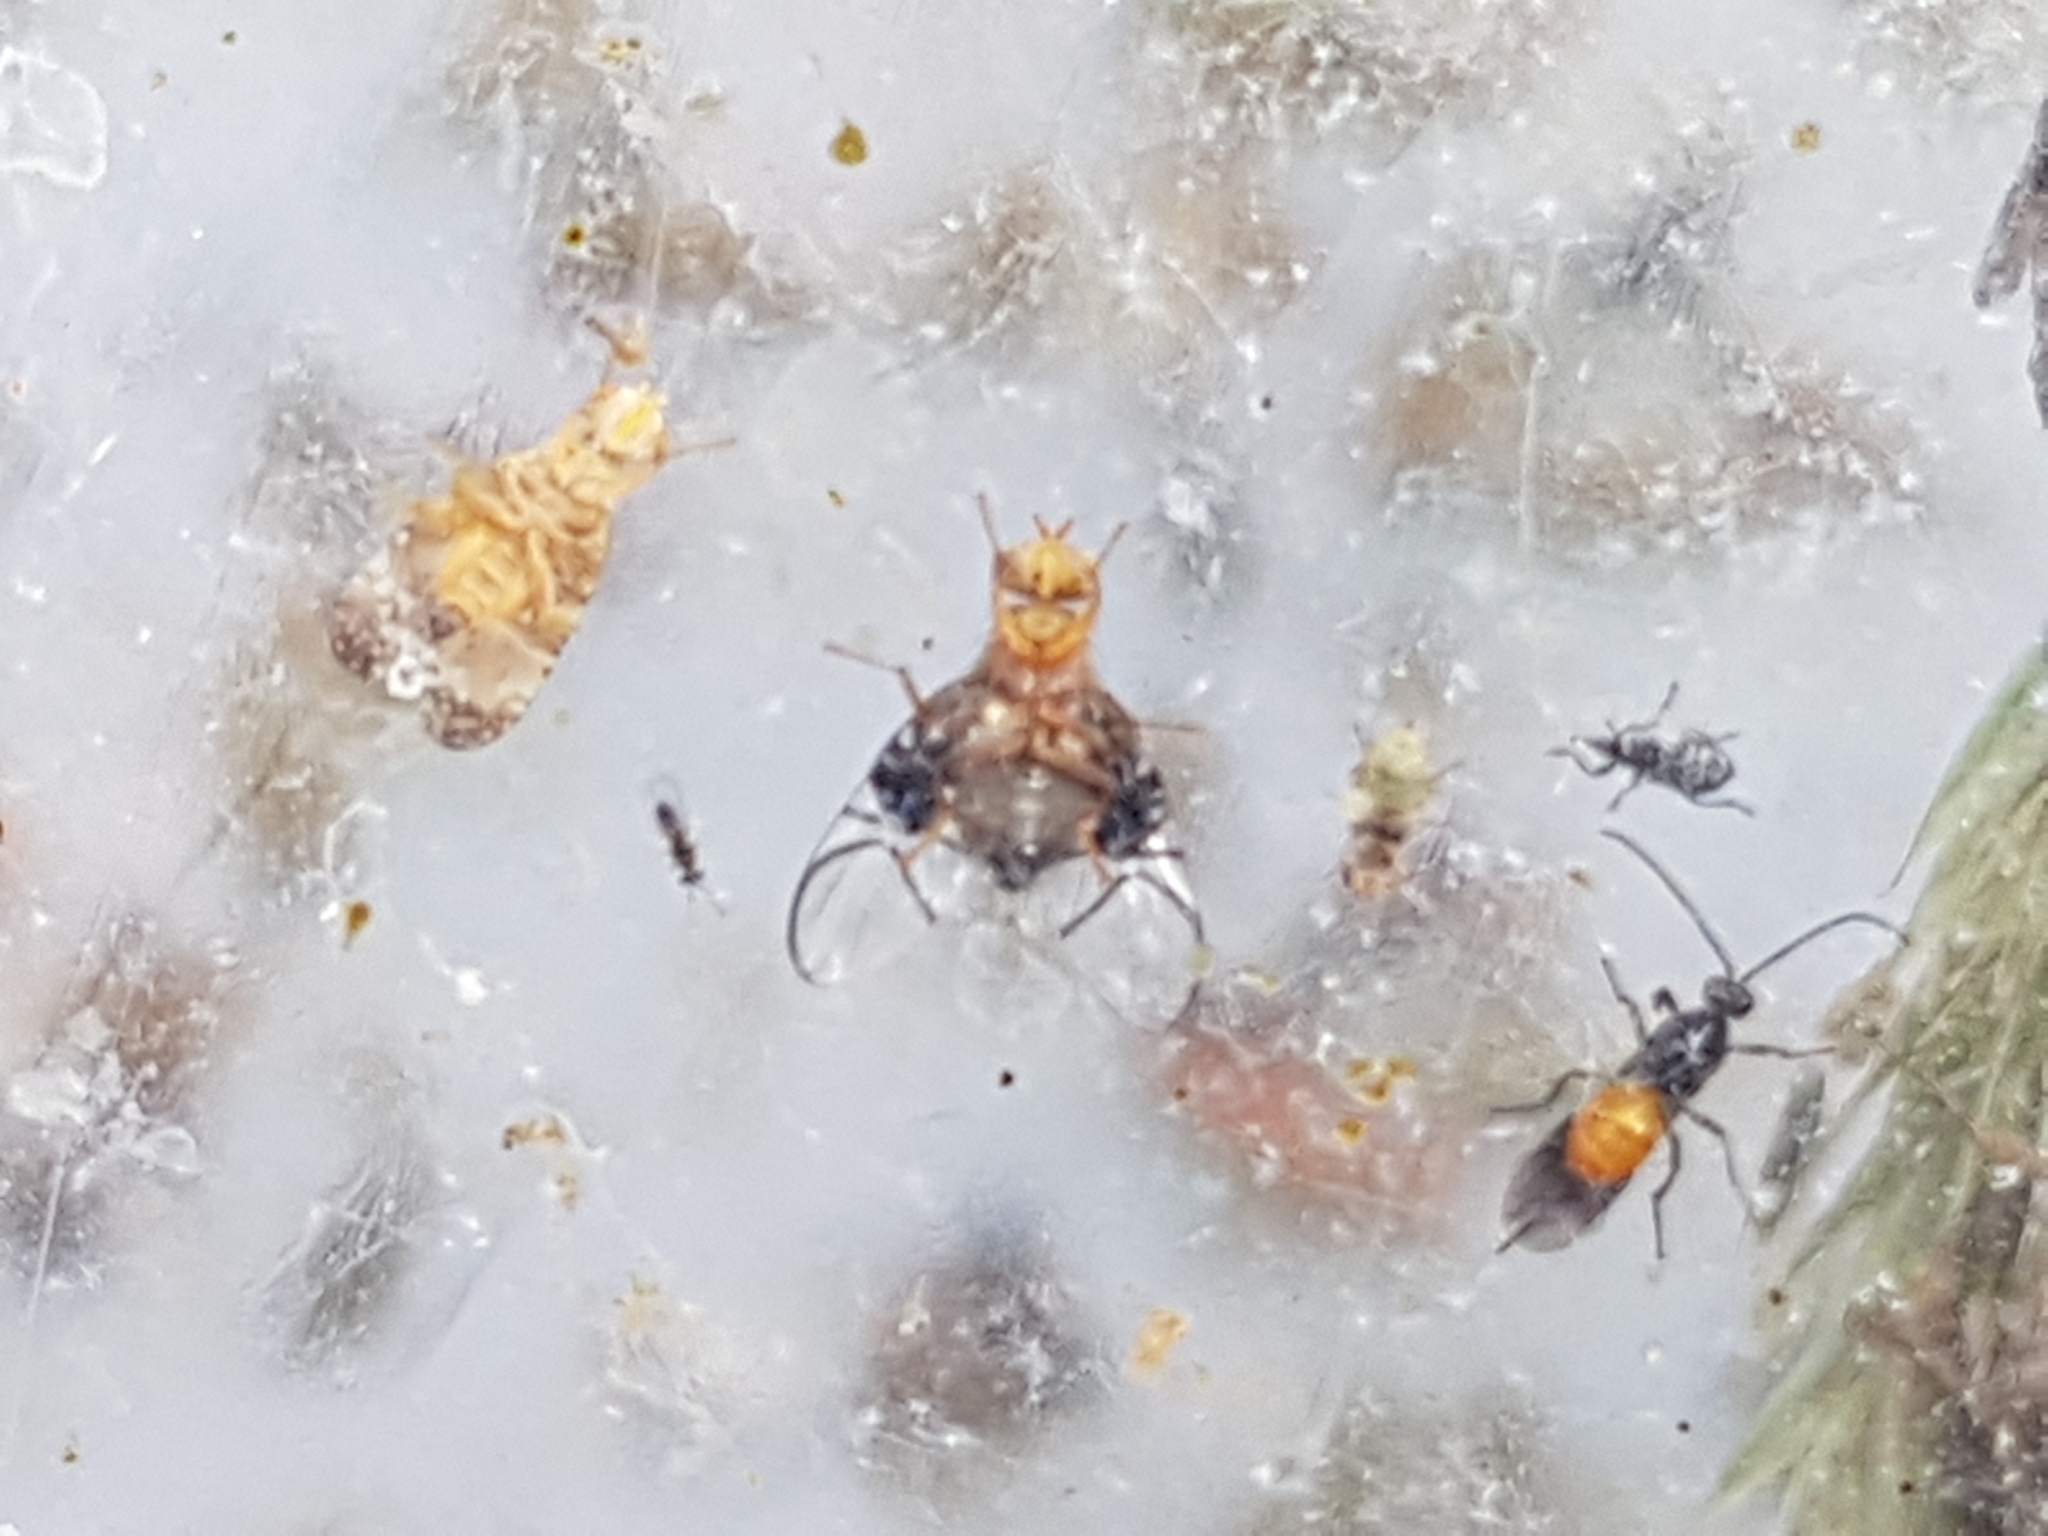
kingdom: Animalia
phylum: Arthropoda
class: Insecta
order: Diptera
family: Tephritidae
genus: Anomoia
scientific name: Anomoia purmunda
